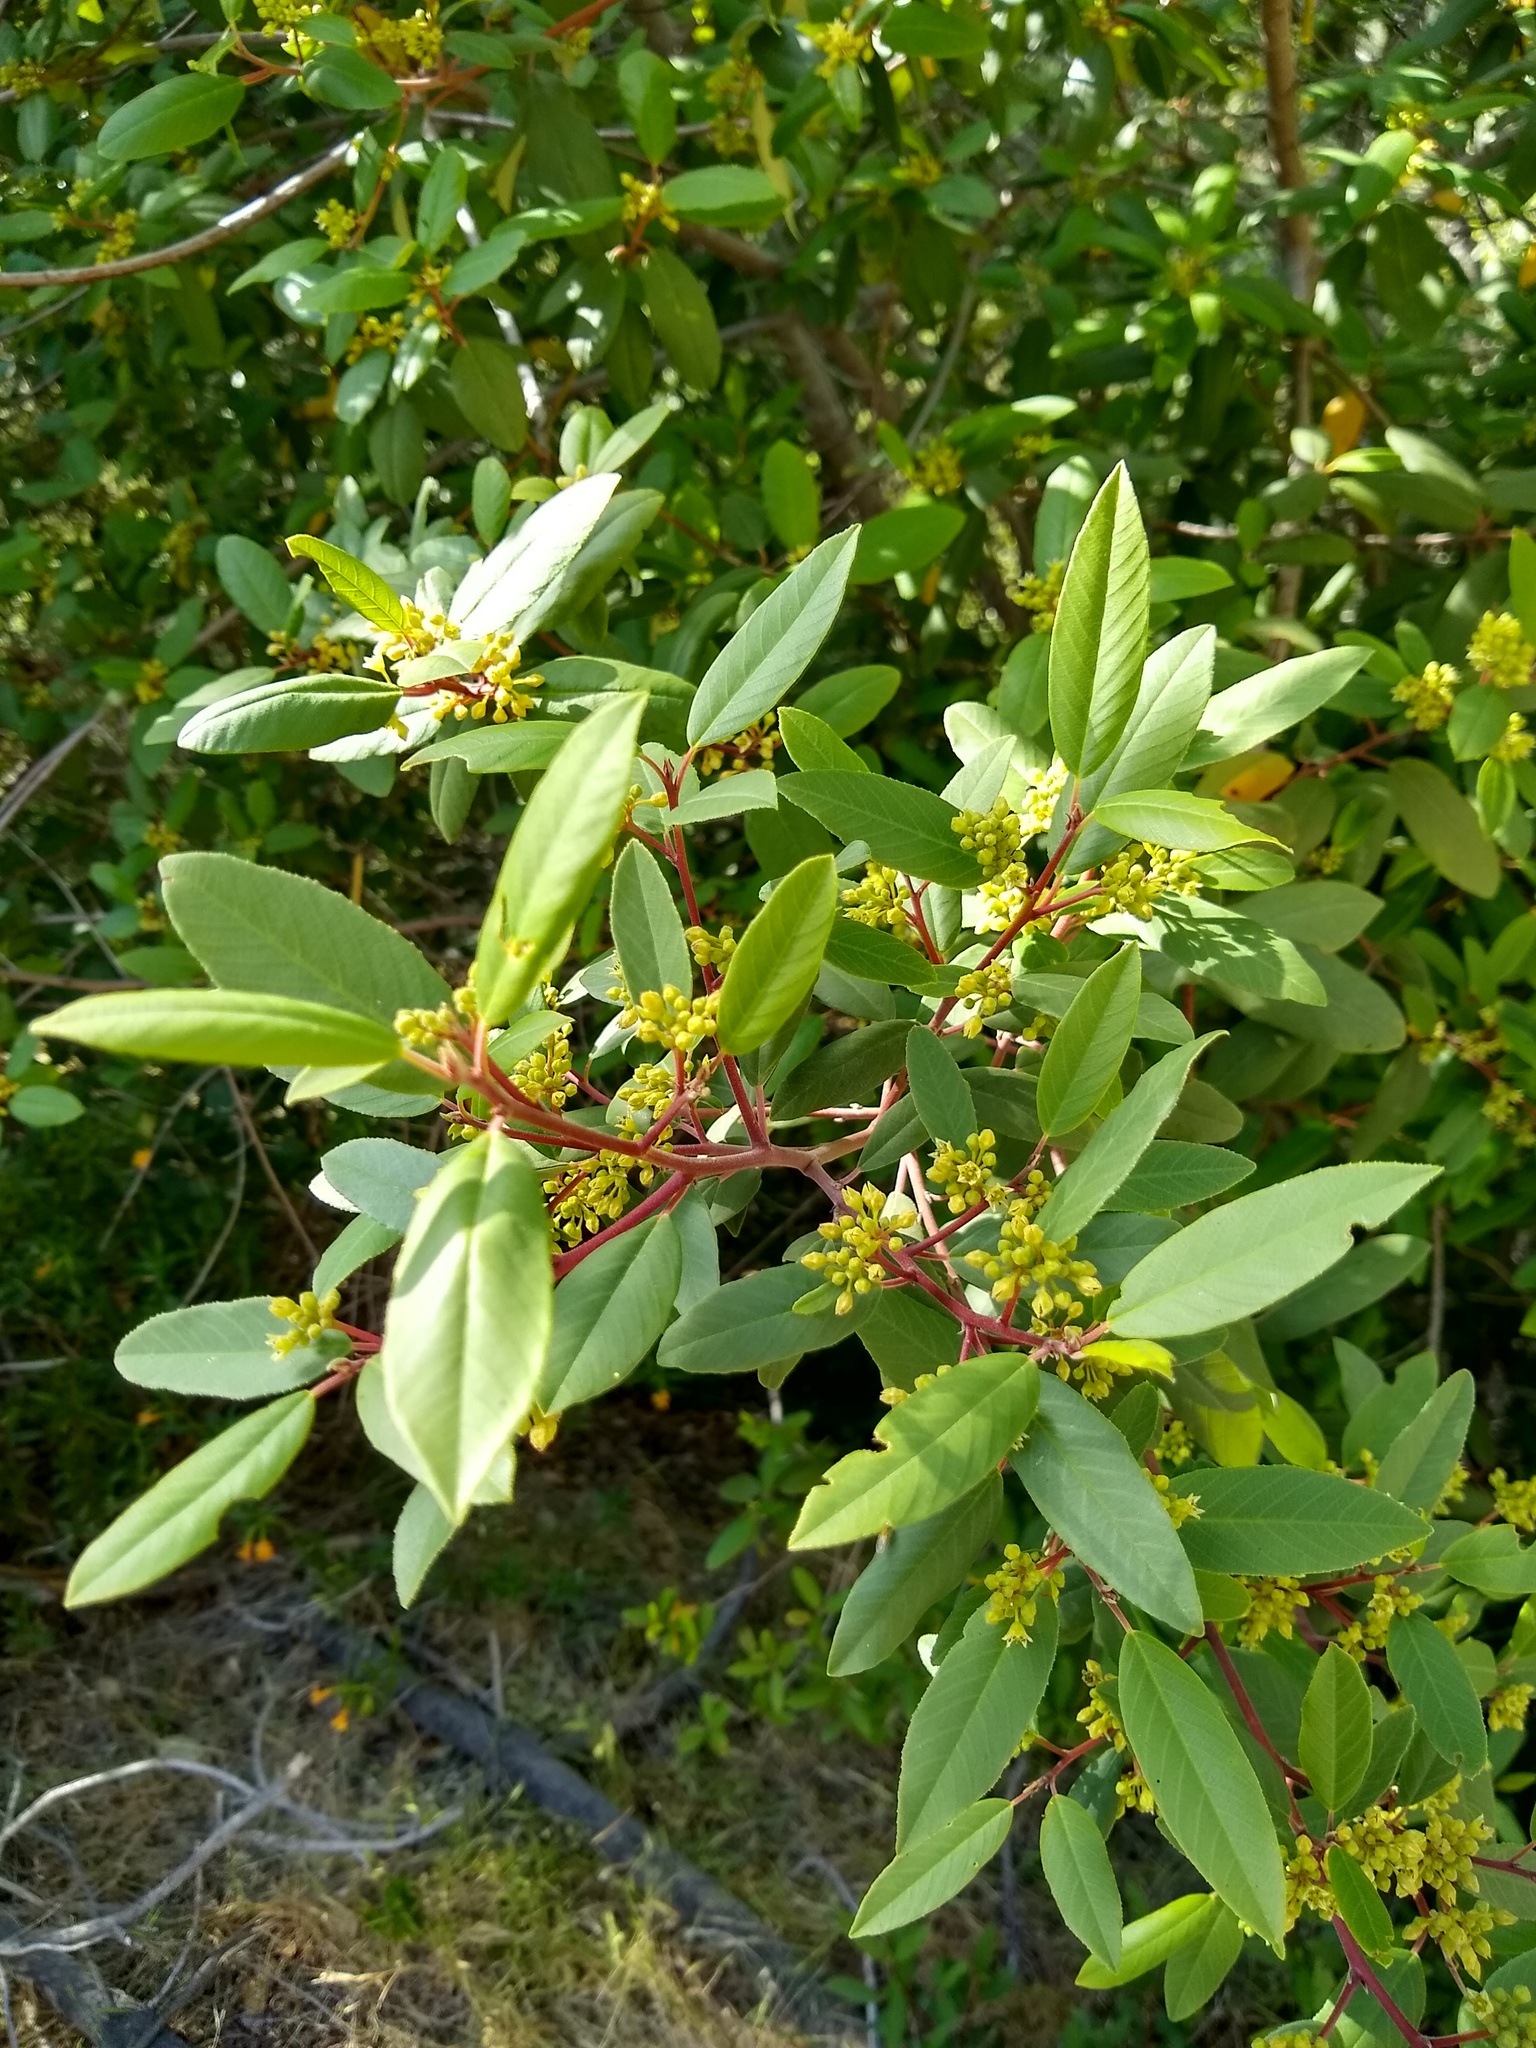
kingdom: Plantae
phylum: Tracheophyta
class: Magnoliopsida
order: Rosales
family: Rhamnaceae
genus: Frangula
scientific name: Frangula californica
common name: California buckthorn
